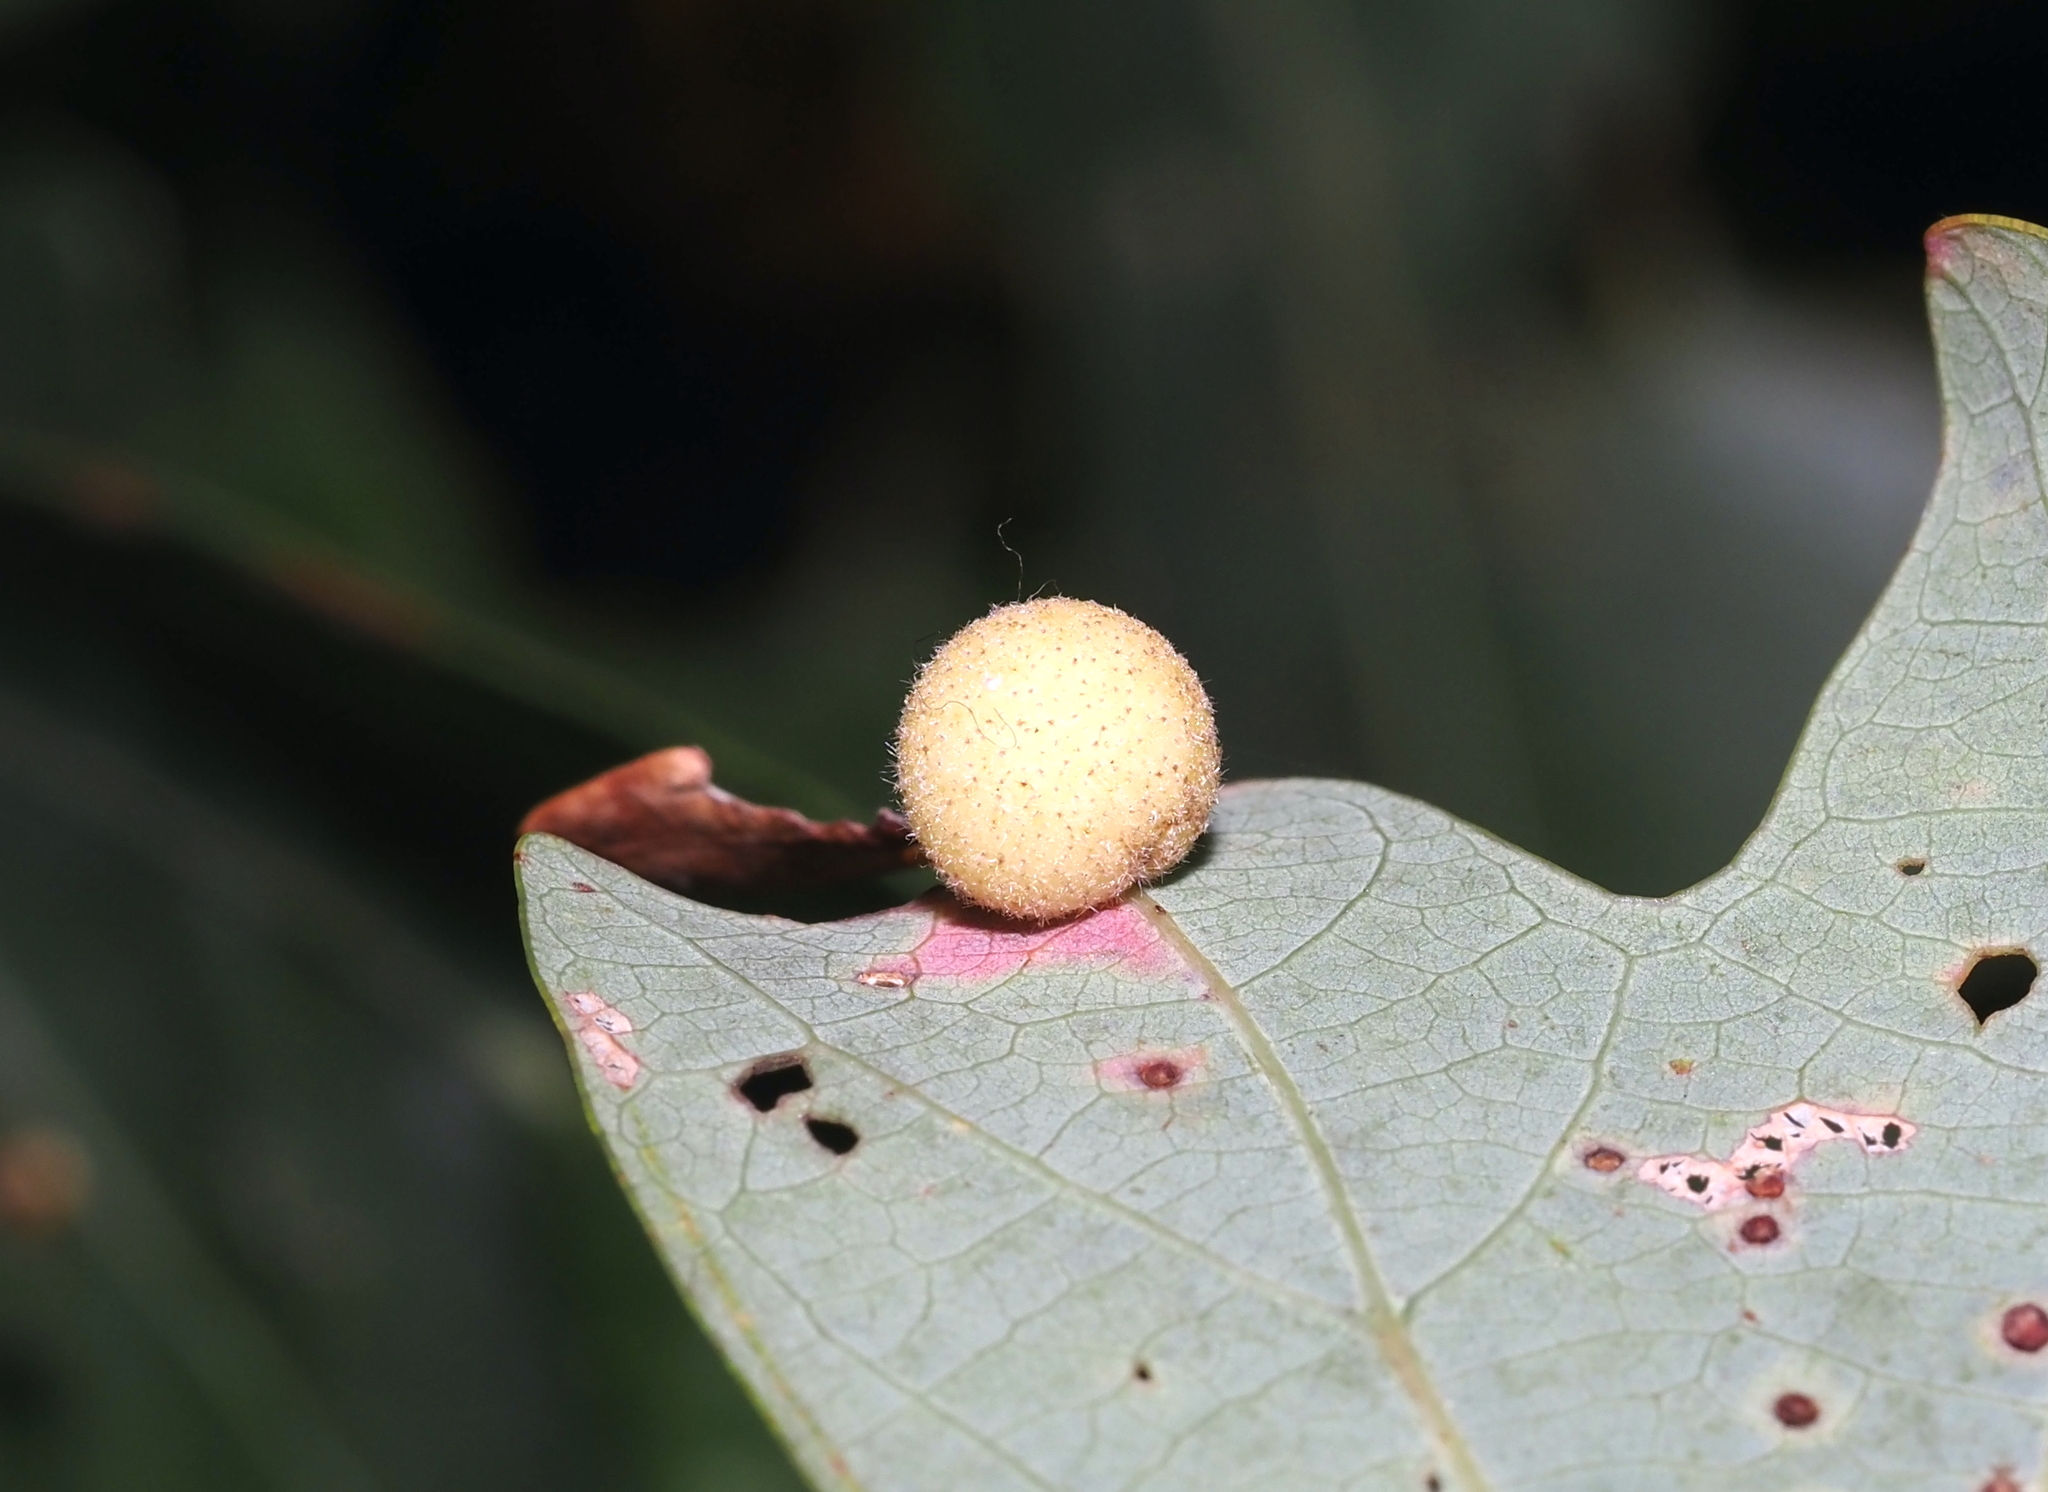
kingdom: Animalia
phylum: Arthropoda
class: Insecta
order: Hymenoptera
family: Cynipidae
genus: Philonix
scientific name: Philonix fulvicollis
